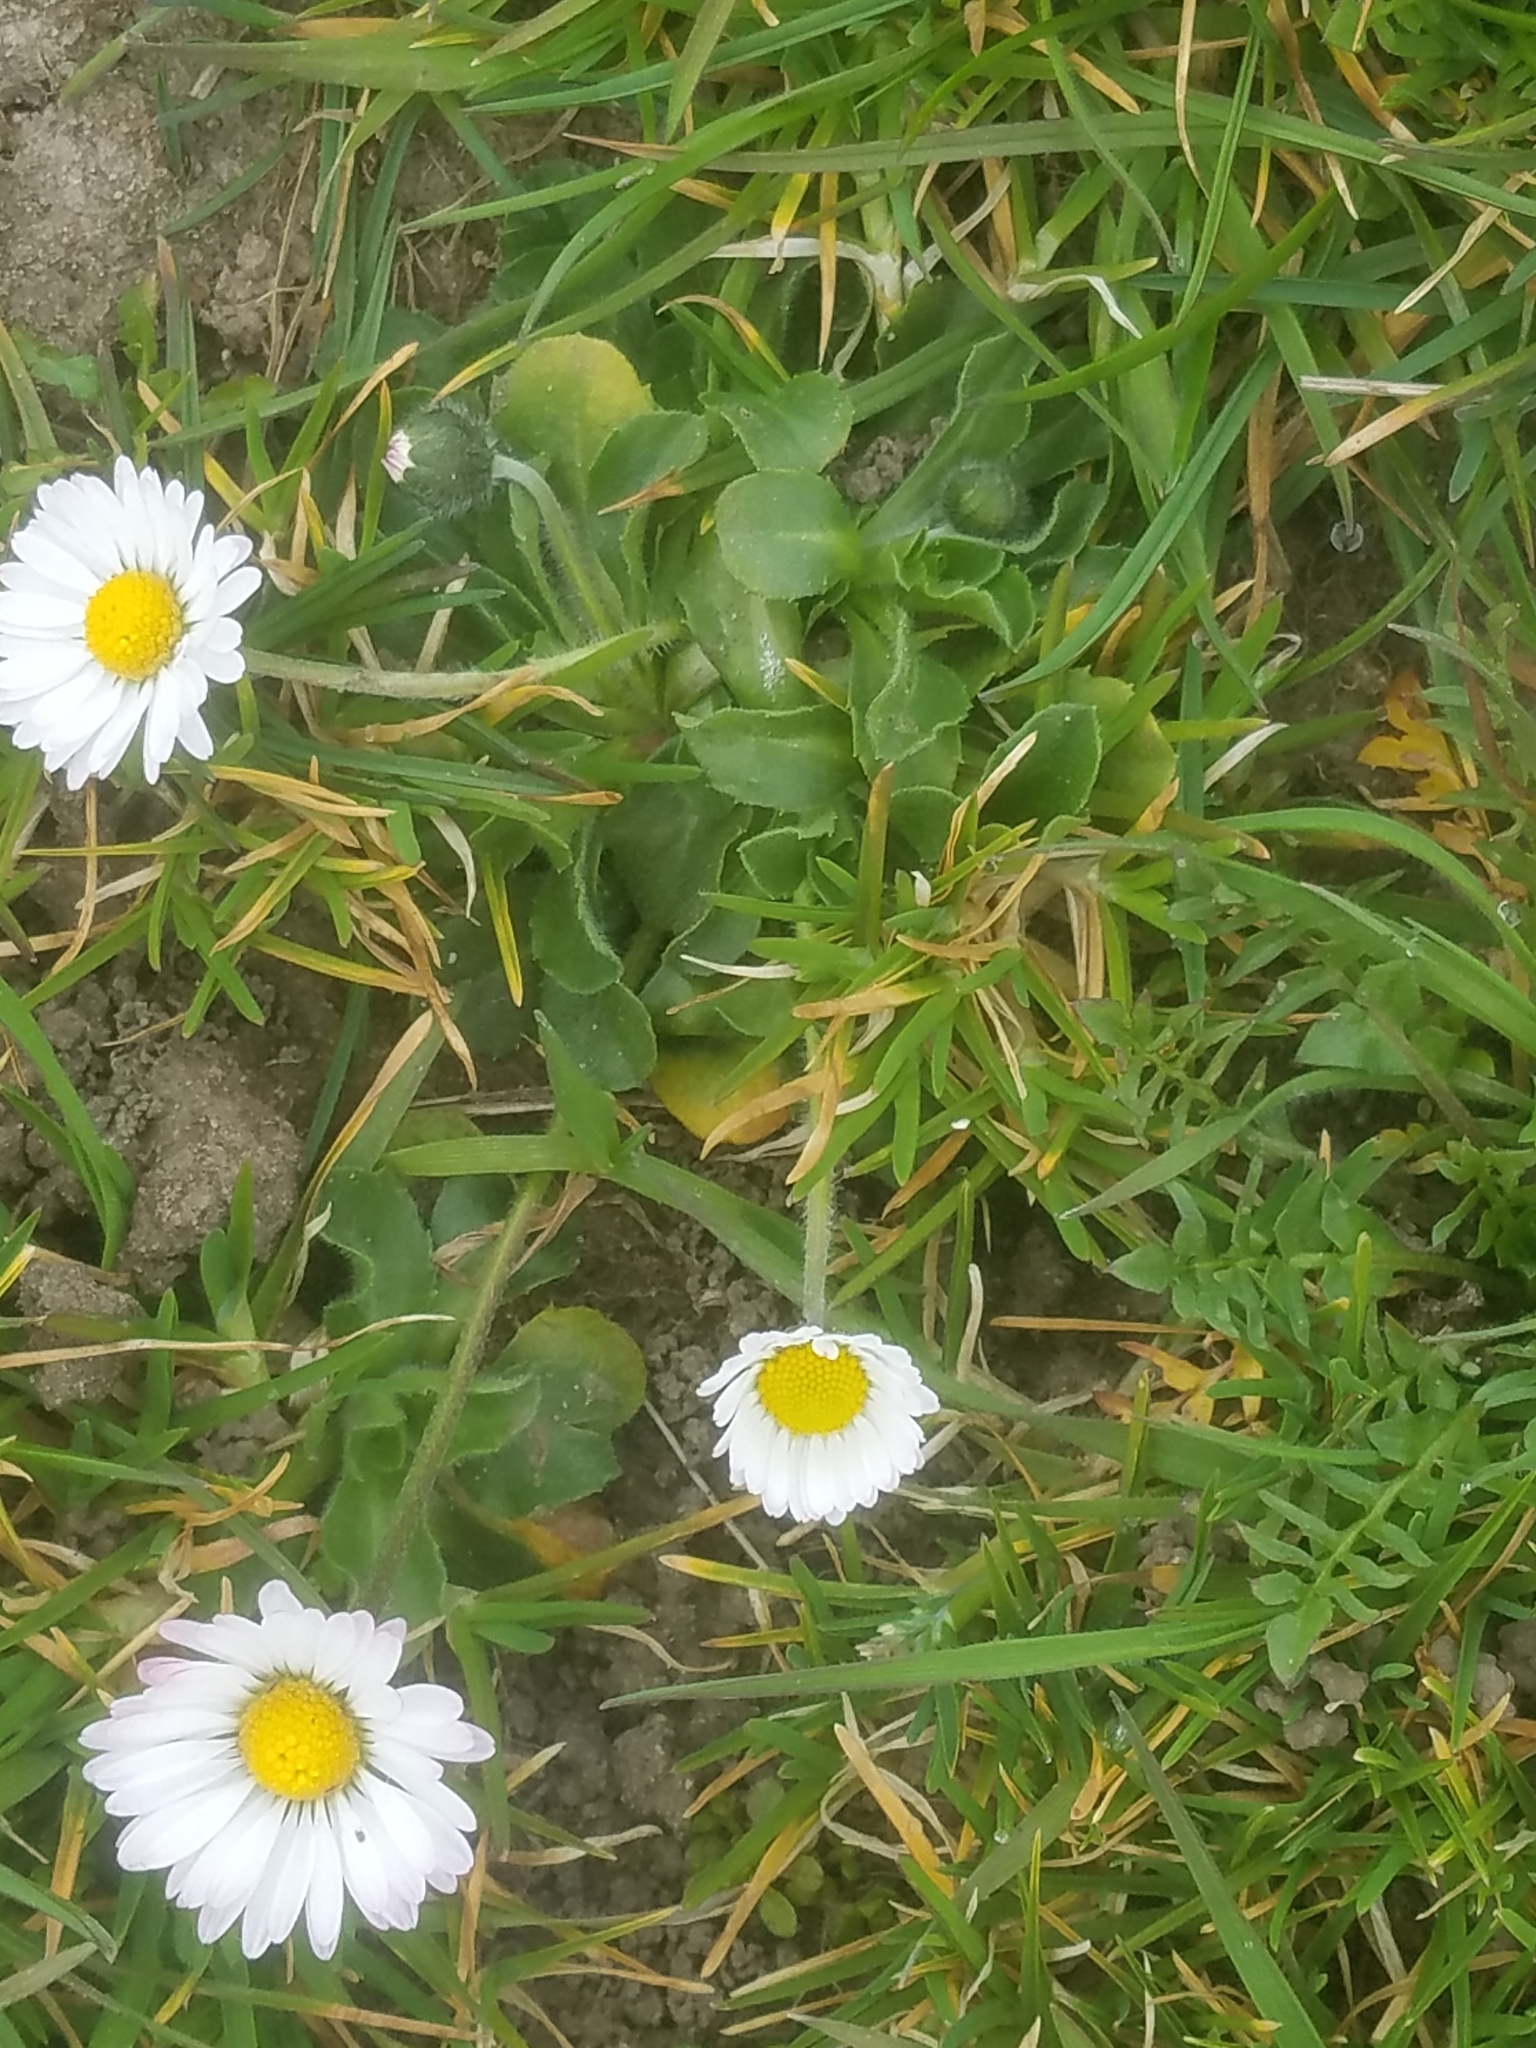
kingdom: Plantae
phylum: Tracheophyta
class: Magnoliopsida
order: Asterales
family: Asteraceae
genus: Bellis
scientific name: Bellis perennis
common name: Lawndaisy
